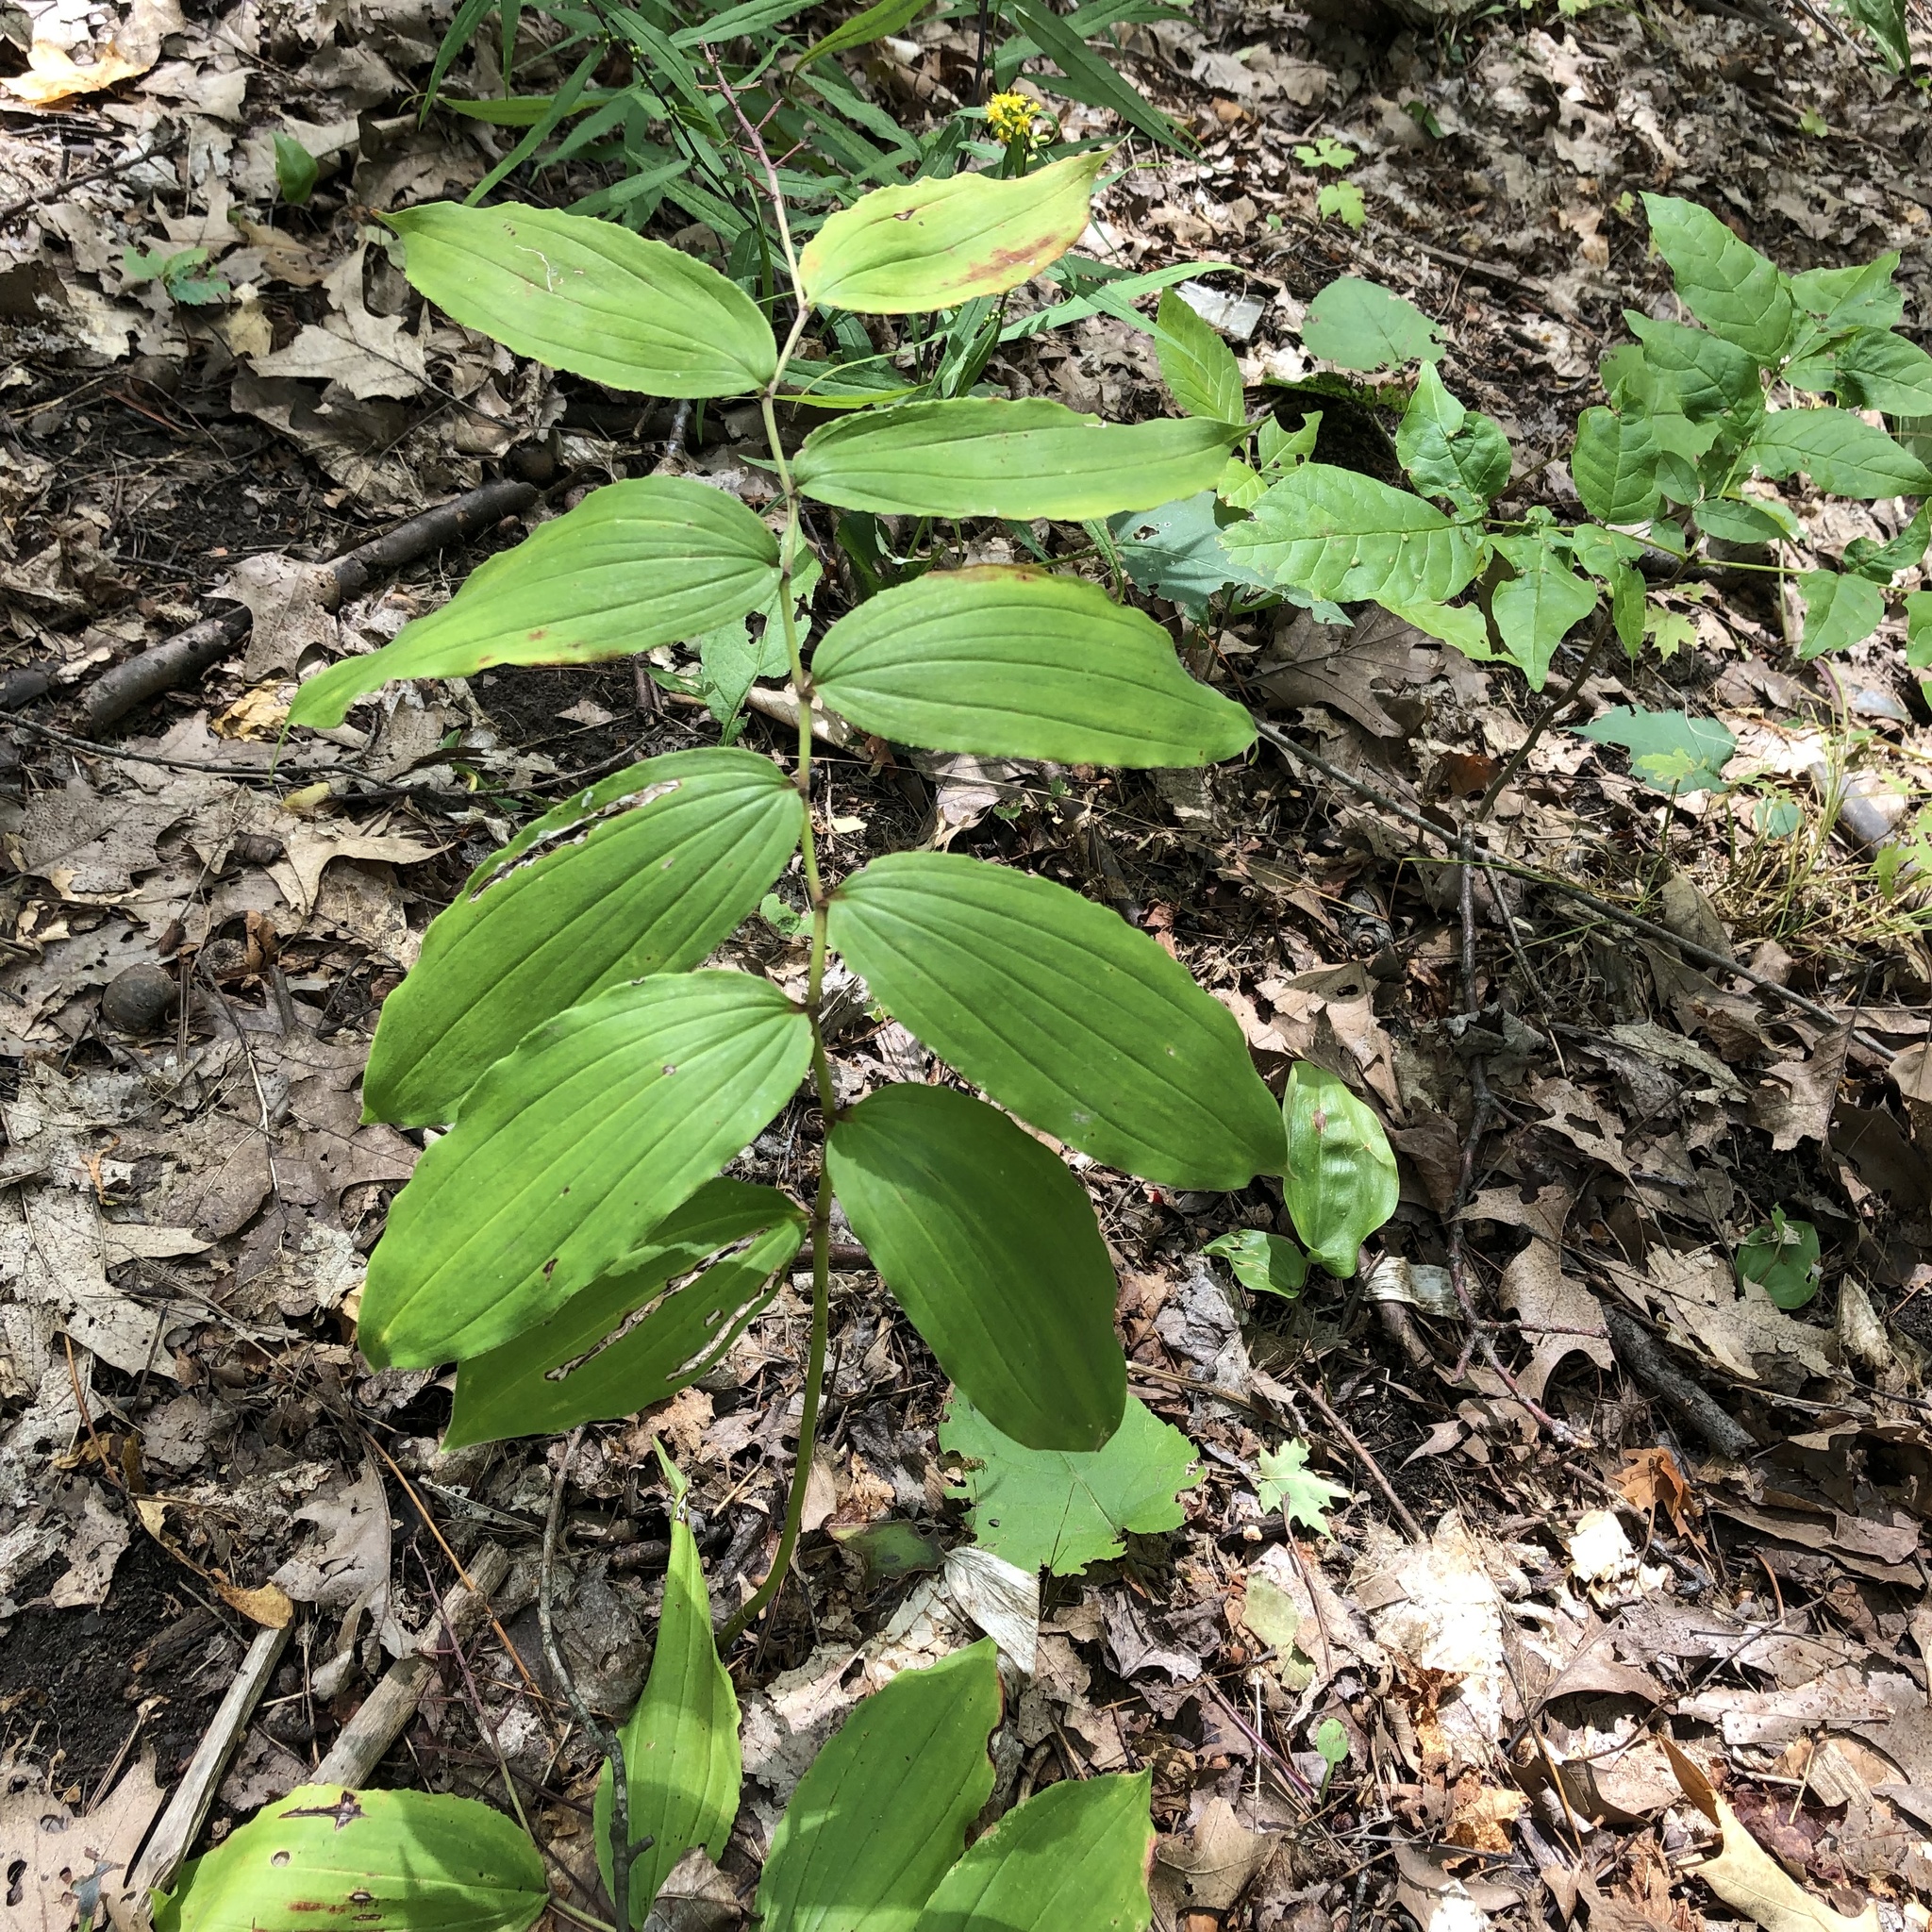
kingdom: Plantae
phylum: Tracheophyta
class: Liliopsida
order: Asparagales
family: Asparagaceae
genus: Maianthemum
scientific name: Maianthemum racemosum
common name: False spikenard
